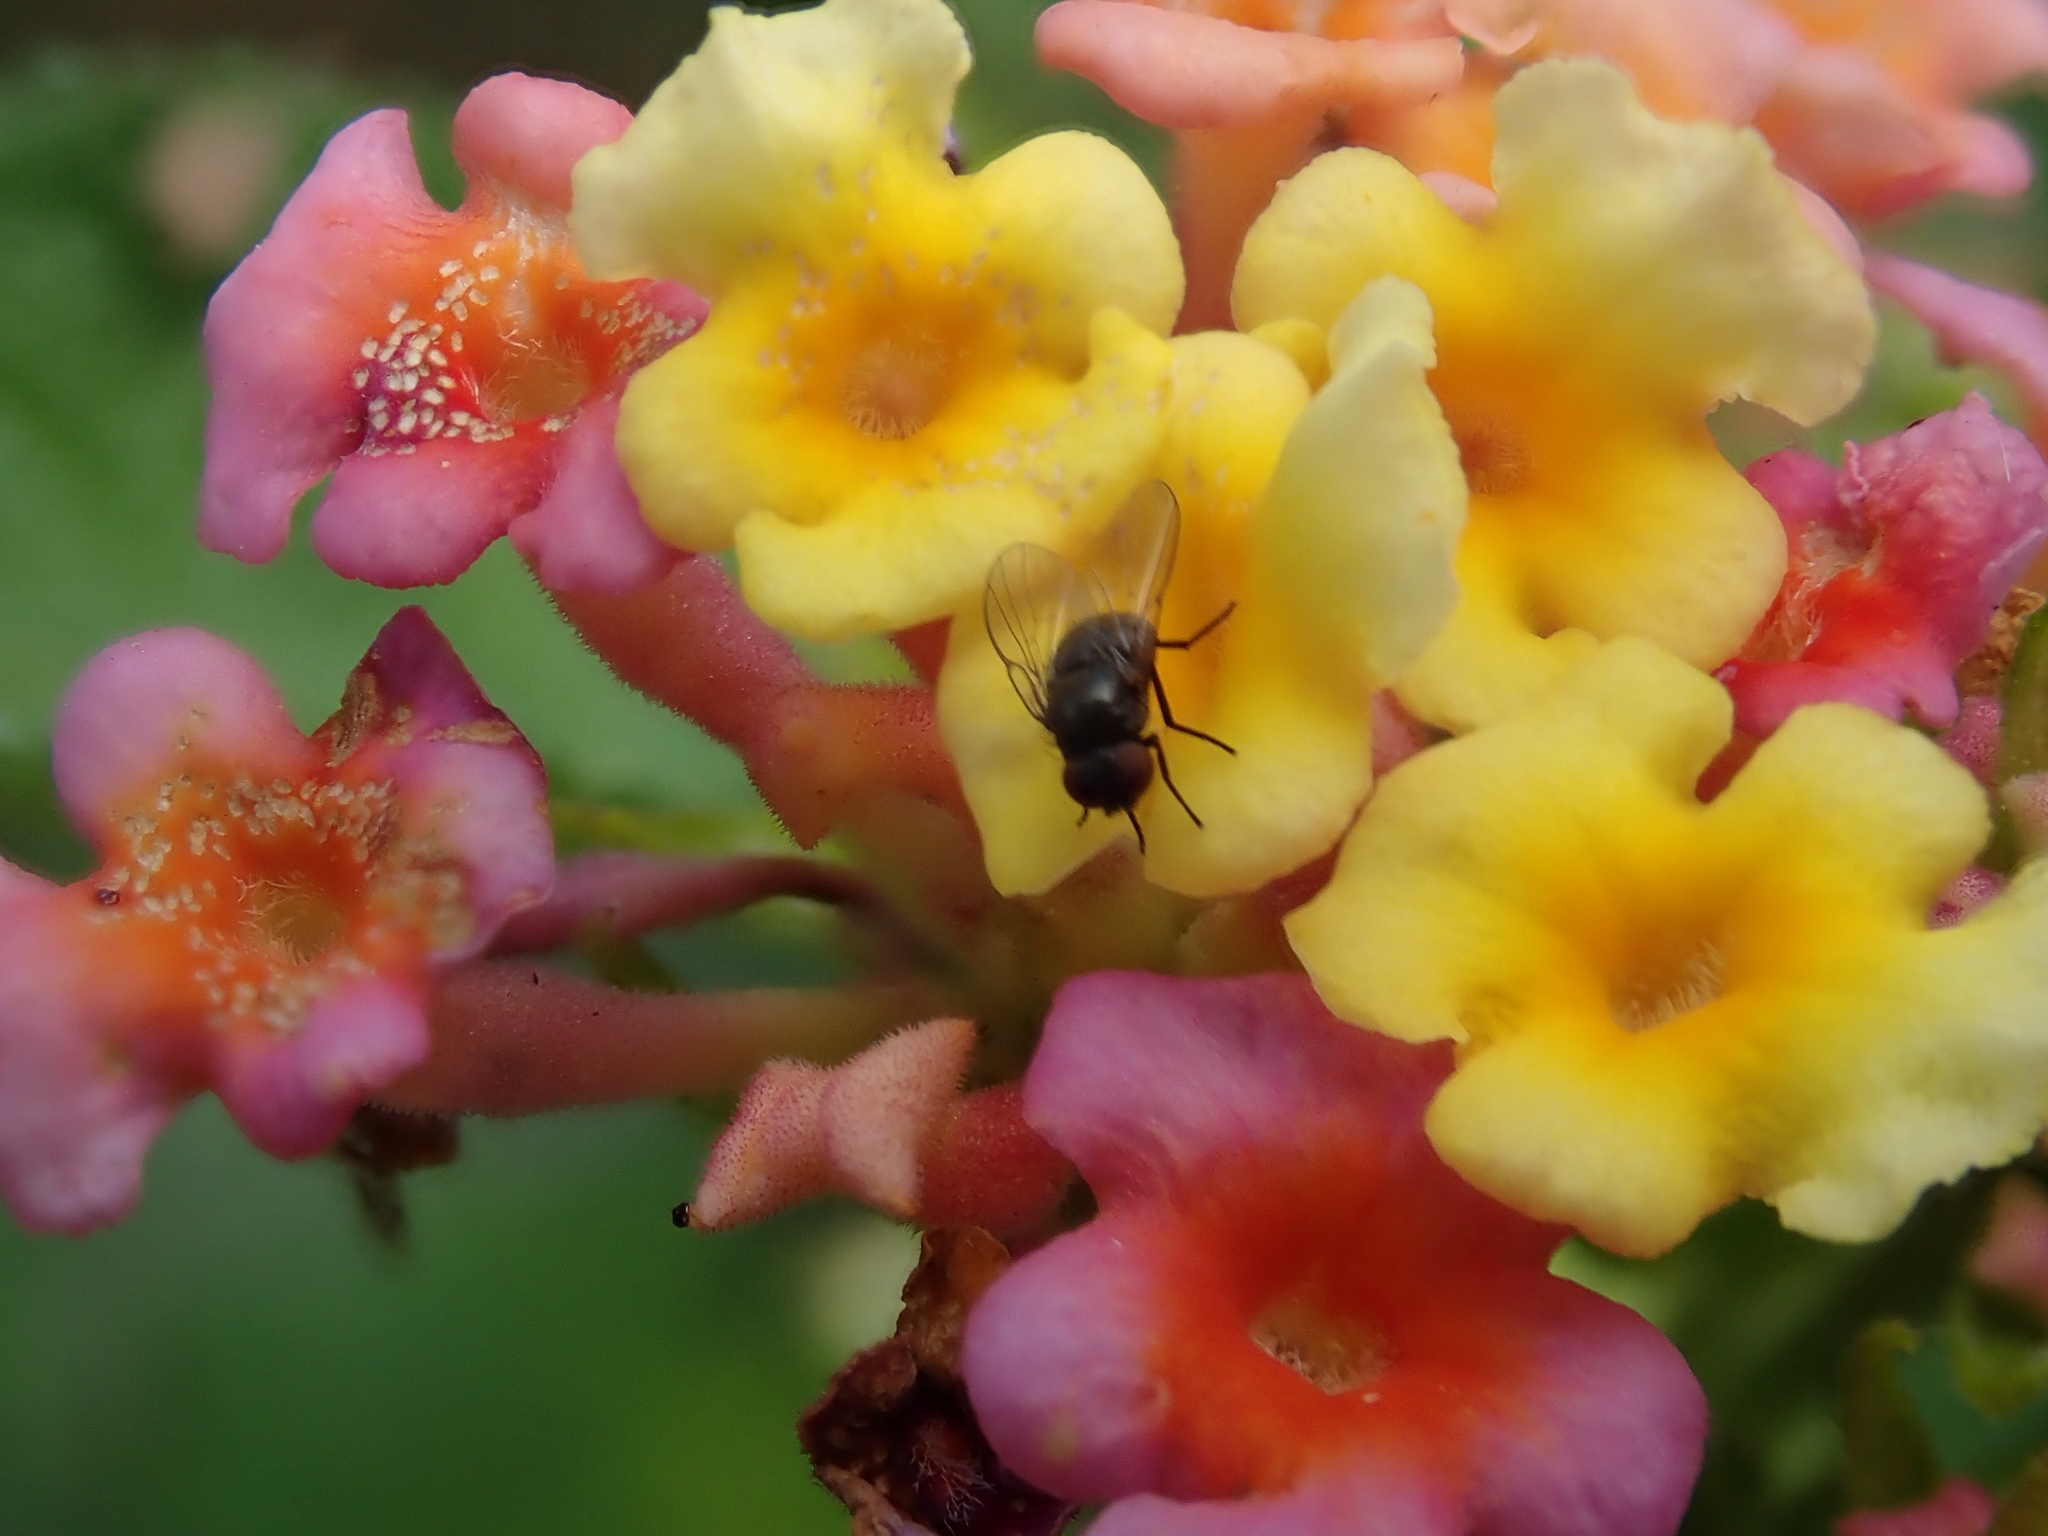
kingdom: Plantae
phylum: Tracheophyta
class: Magnoliopsida
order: Lamiales
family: Verbenaceae
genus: Lantana
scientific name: Lantana camara
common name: Lantana
